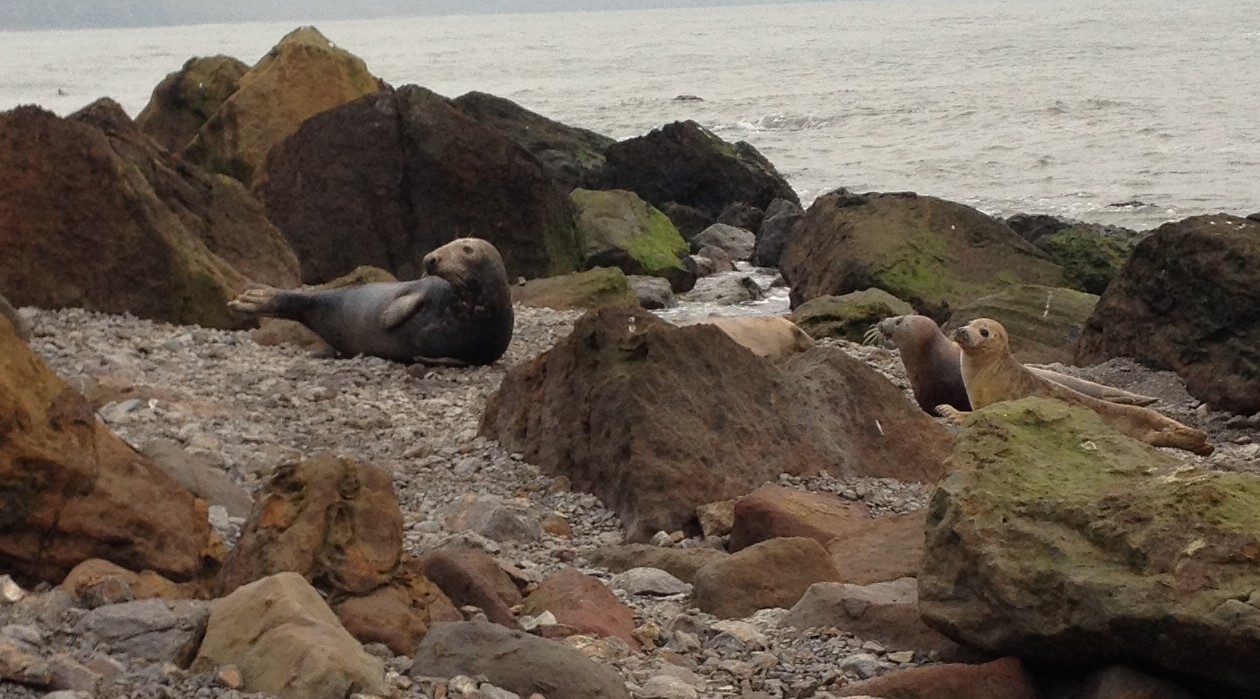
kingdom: Animalia
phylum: Chordata
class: Mammalia
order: Carnivora
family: Phocidae
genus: Halichoerus
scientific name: Halichoerus grypus
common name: Grey seal
